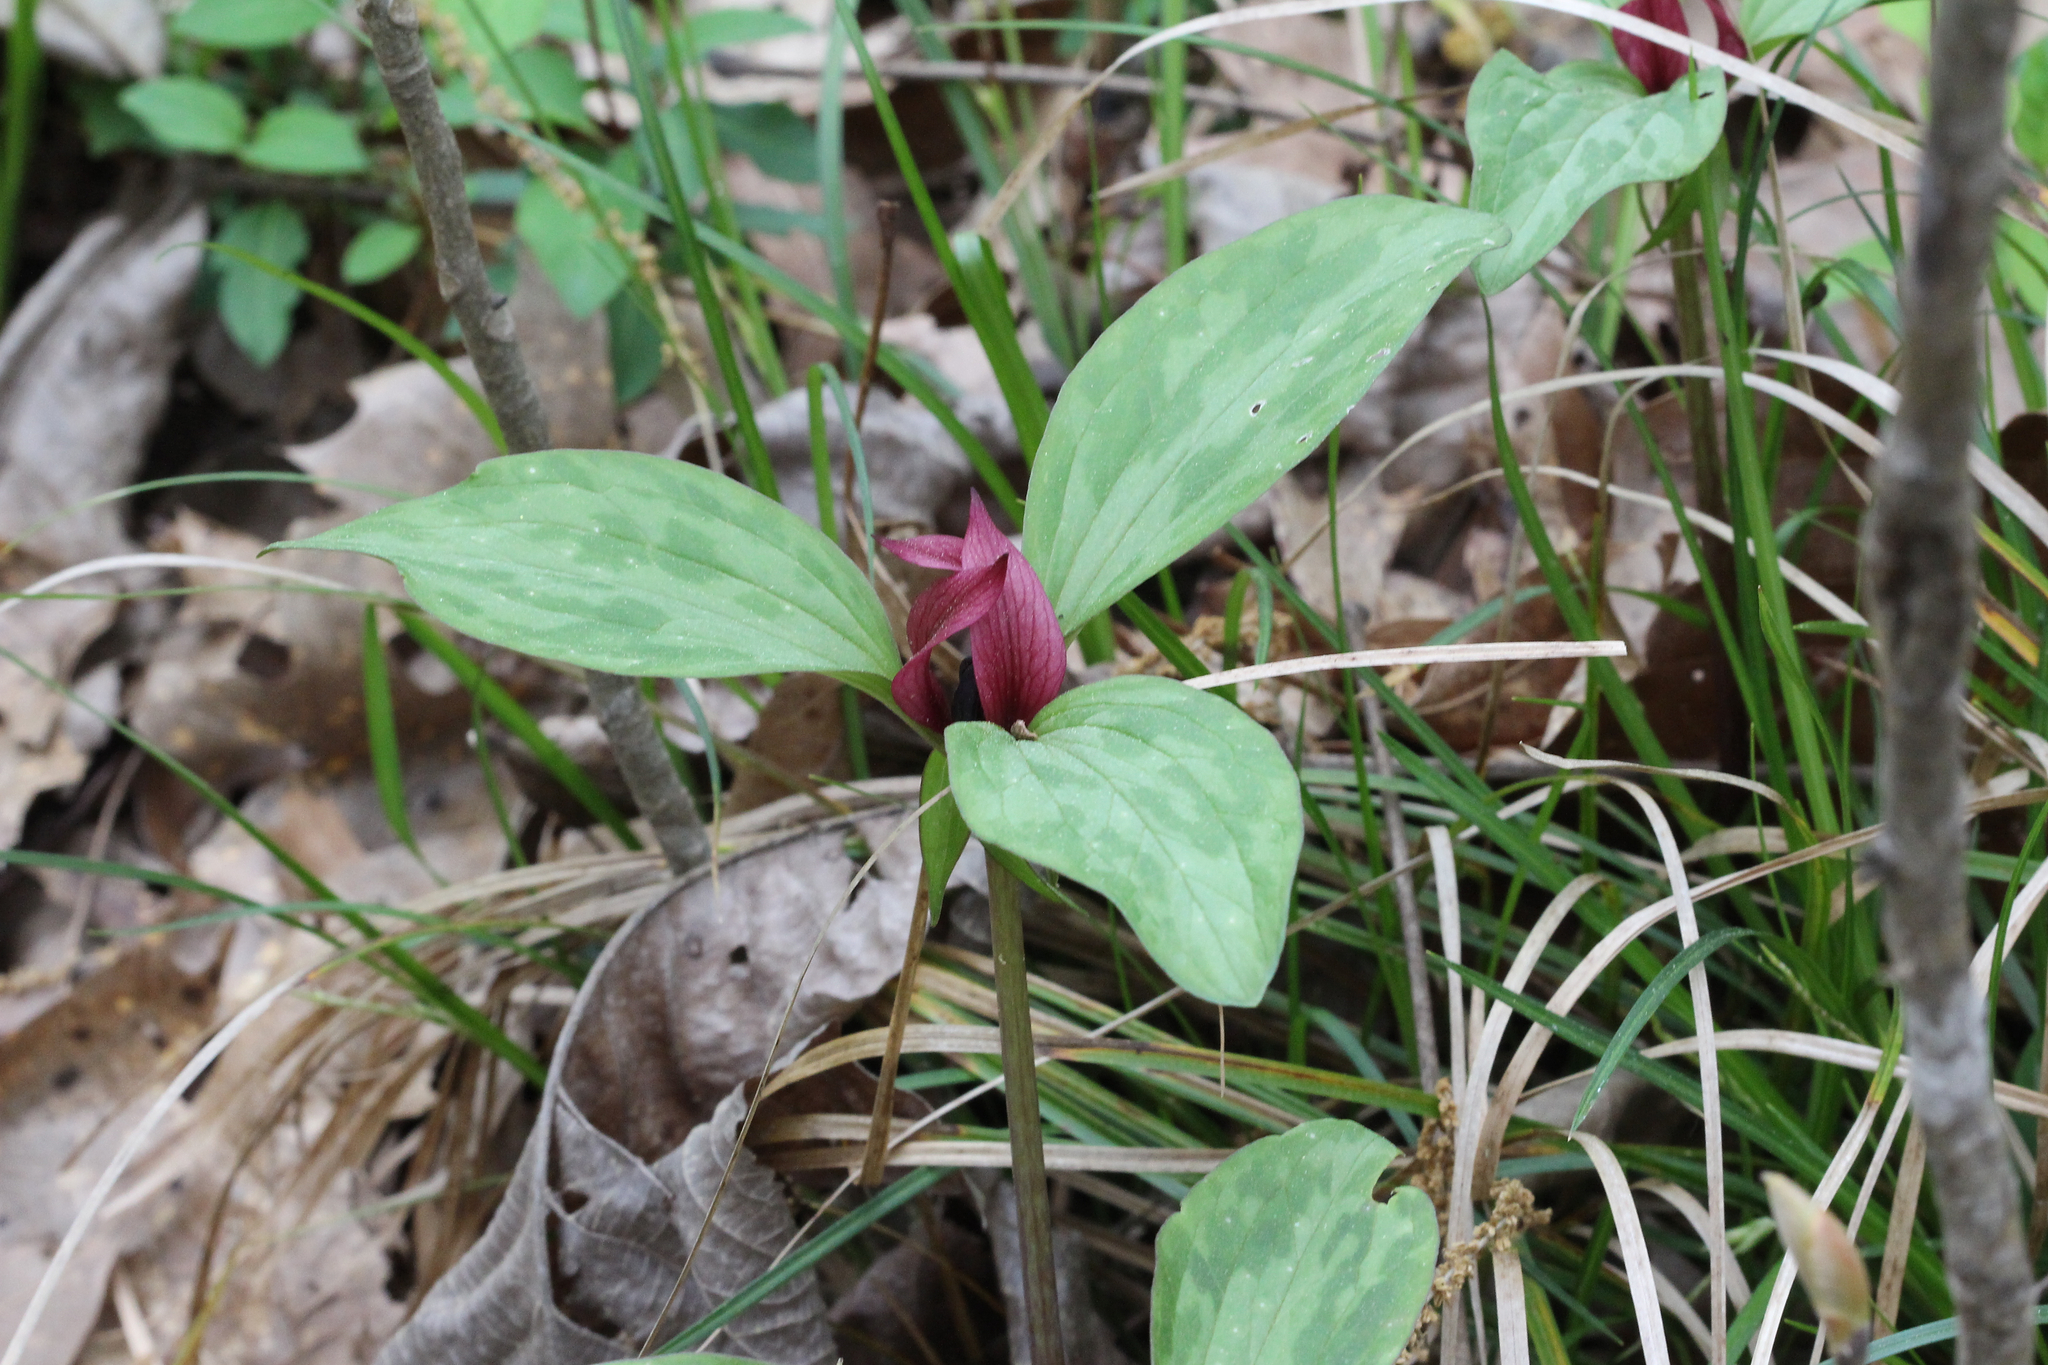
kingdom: Plantae
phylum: Tracheophyta
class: Liliopsida
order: Liliales
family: Melanthiaceae
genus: Trillium
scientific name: Trillium recurvatum
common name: Bloody butcher
